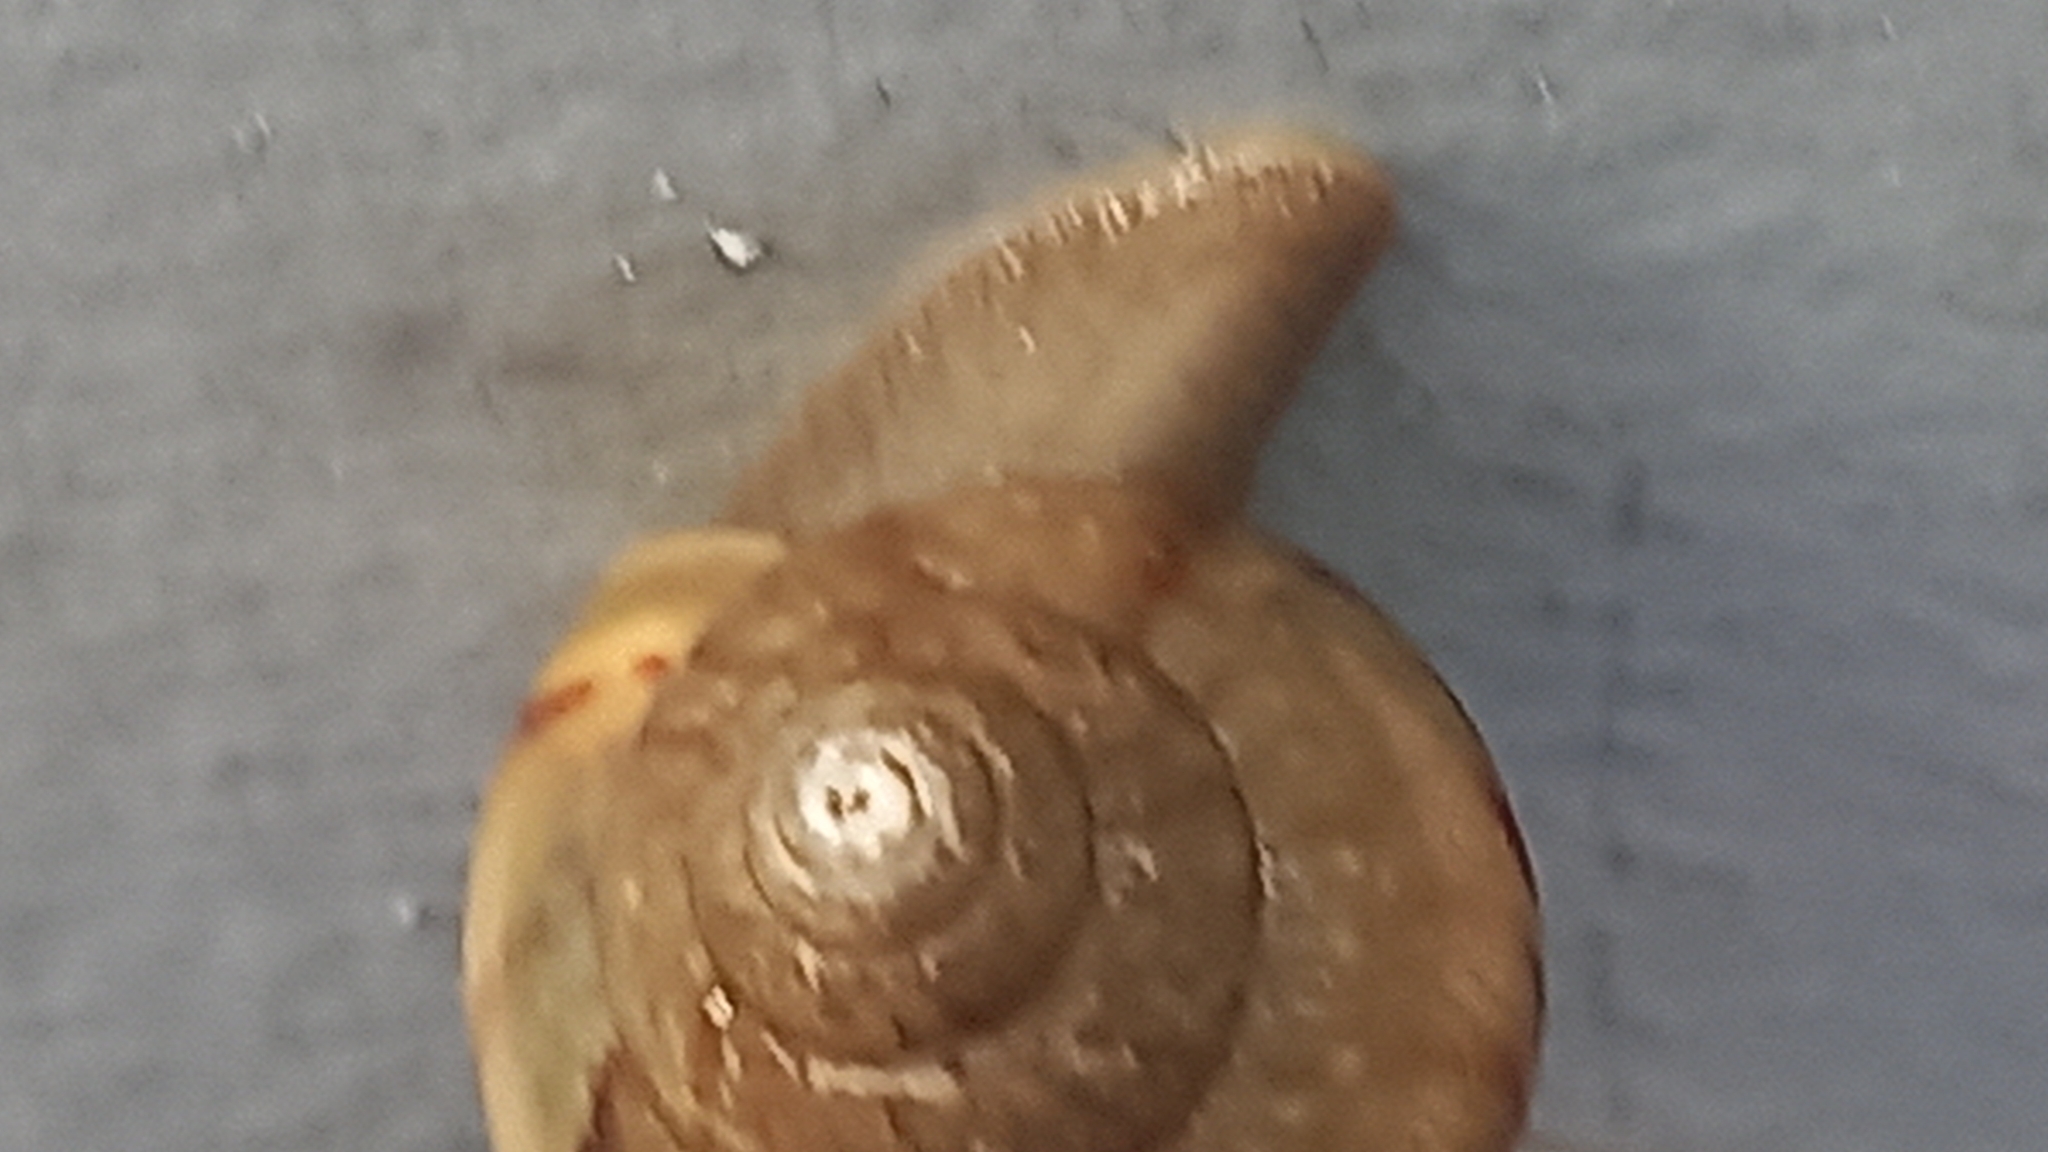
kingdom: Animalia
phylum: Mollusca
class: Gastropoda
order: Stylommatophora
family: Achatinidae
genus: Lissachatina
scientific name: Lissachatina fulica
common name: Giant african snail
